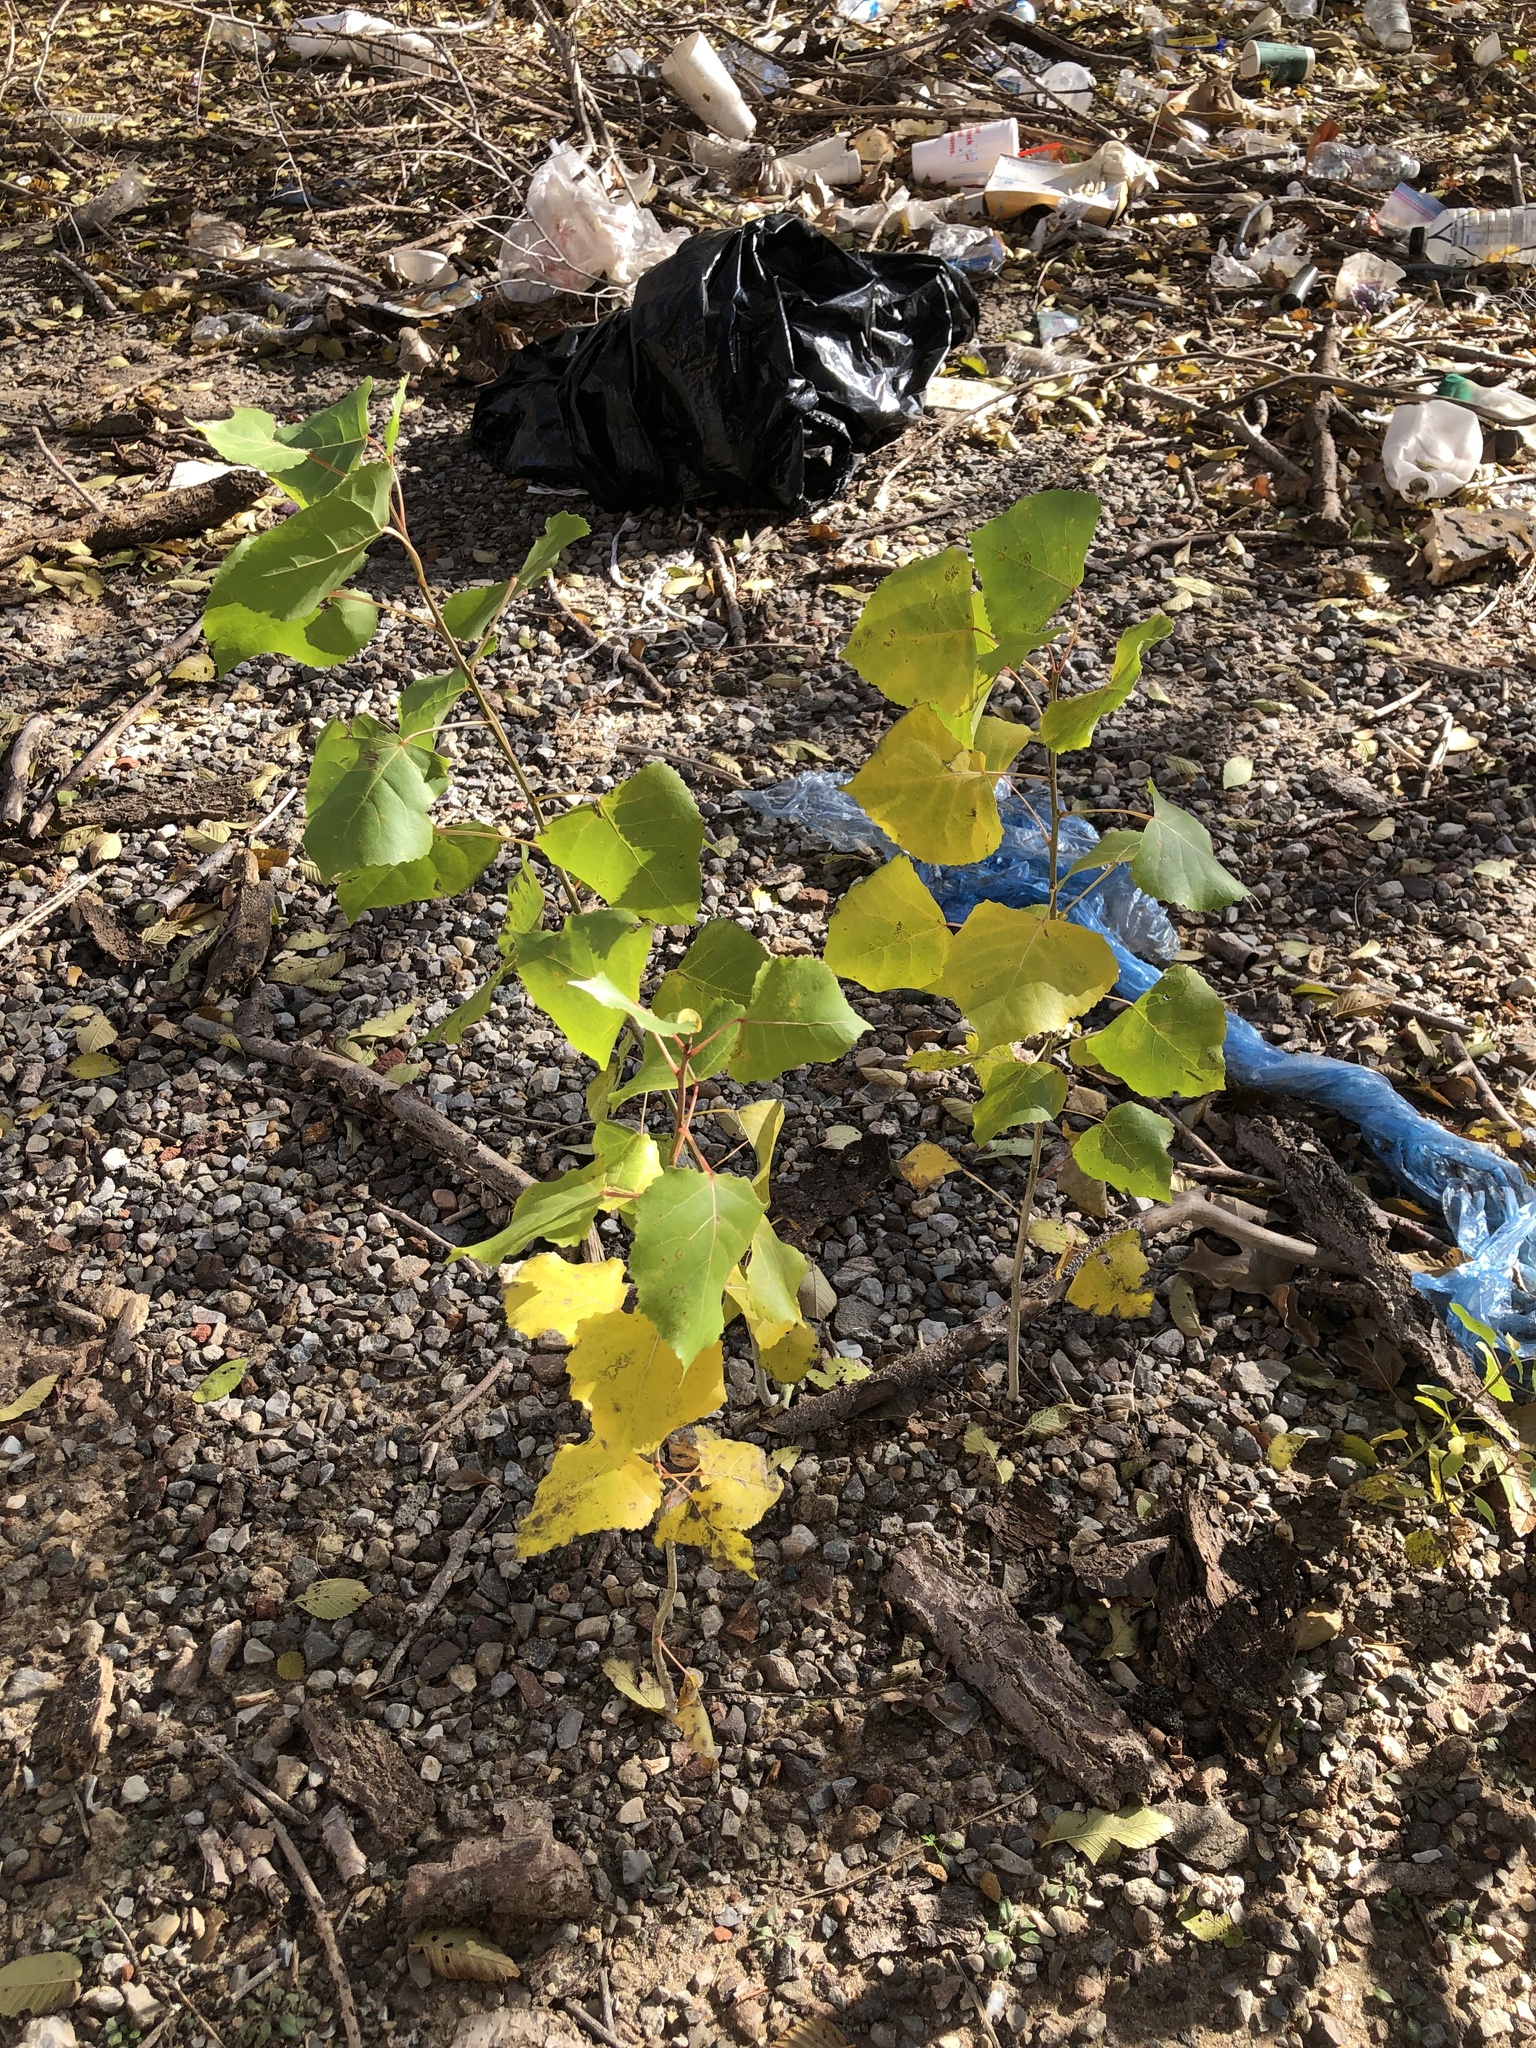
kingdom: Plantae
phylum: Tracheophyta
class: Magnoliopsida
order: Malpighiales
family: Salicaceae
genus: Populus
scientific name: Populus deltoides
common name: Eastern cottonwood
